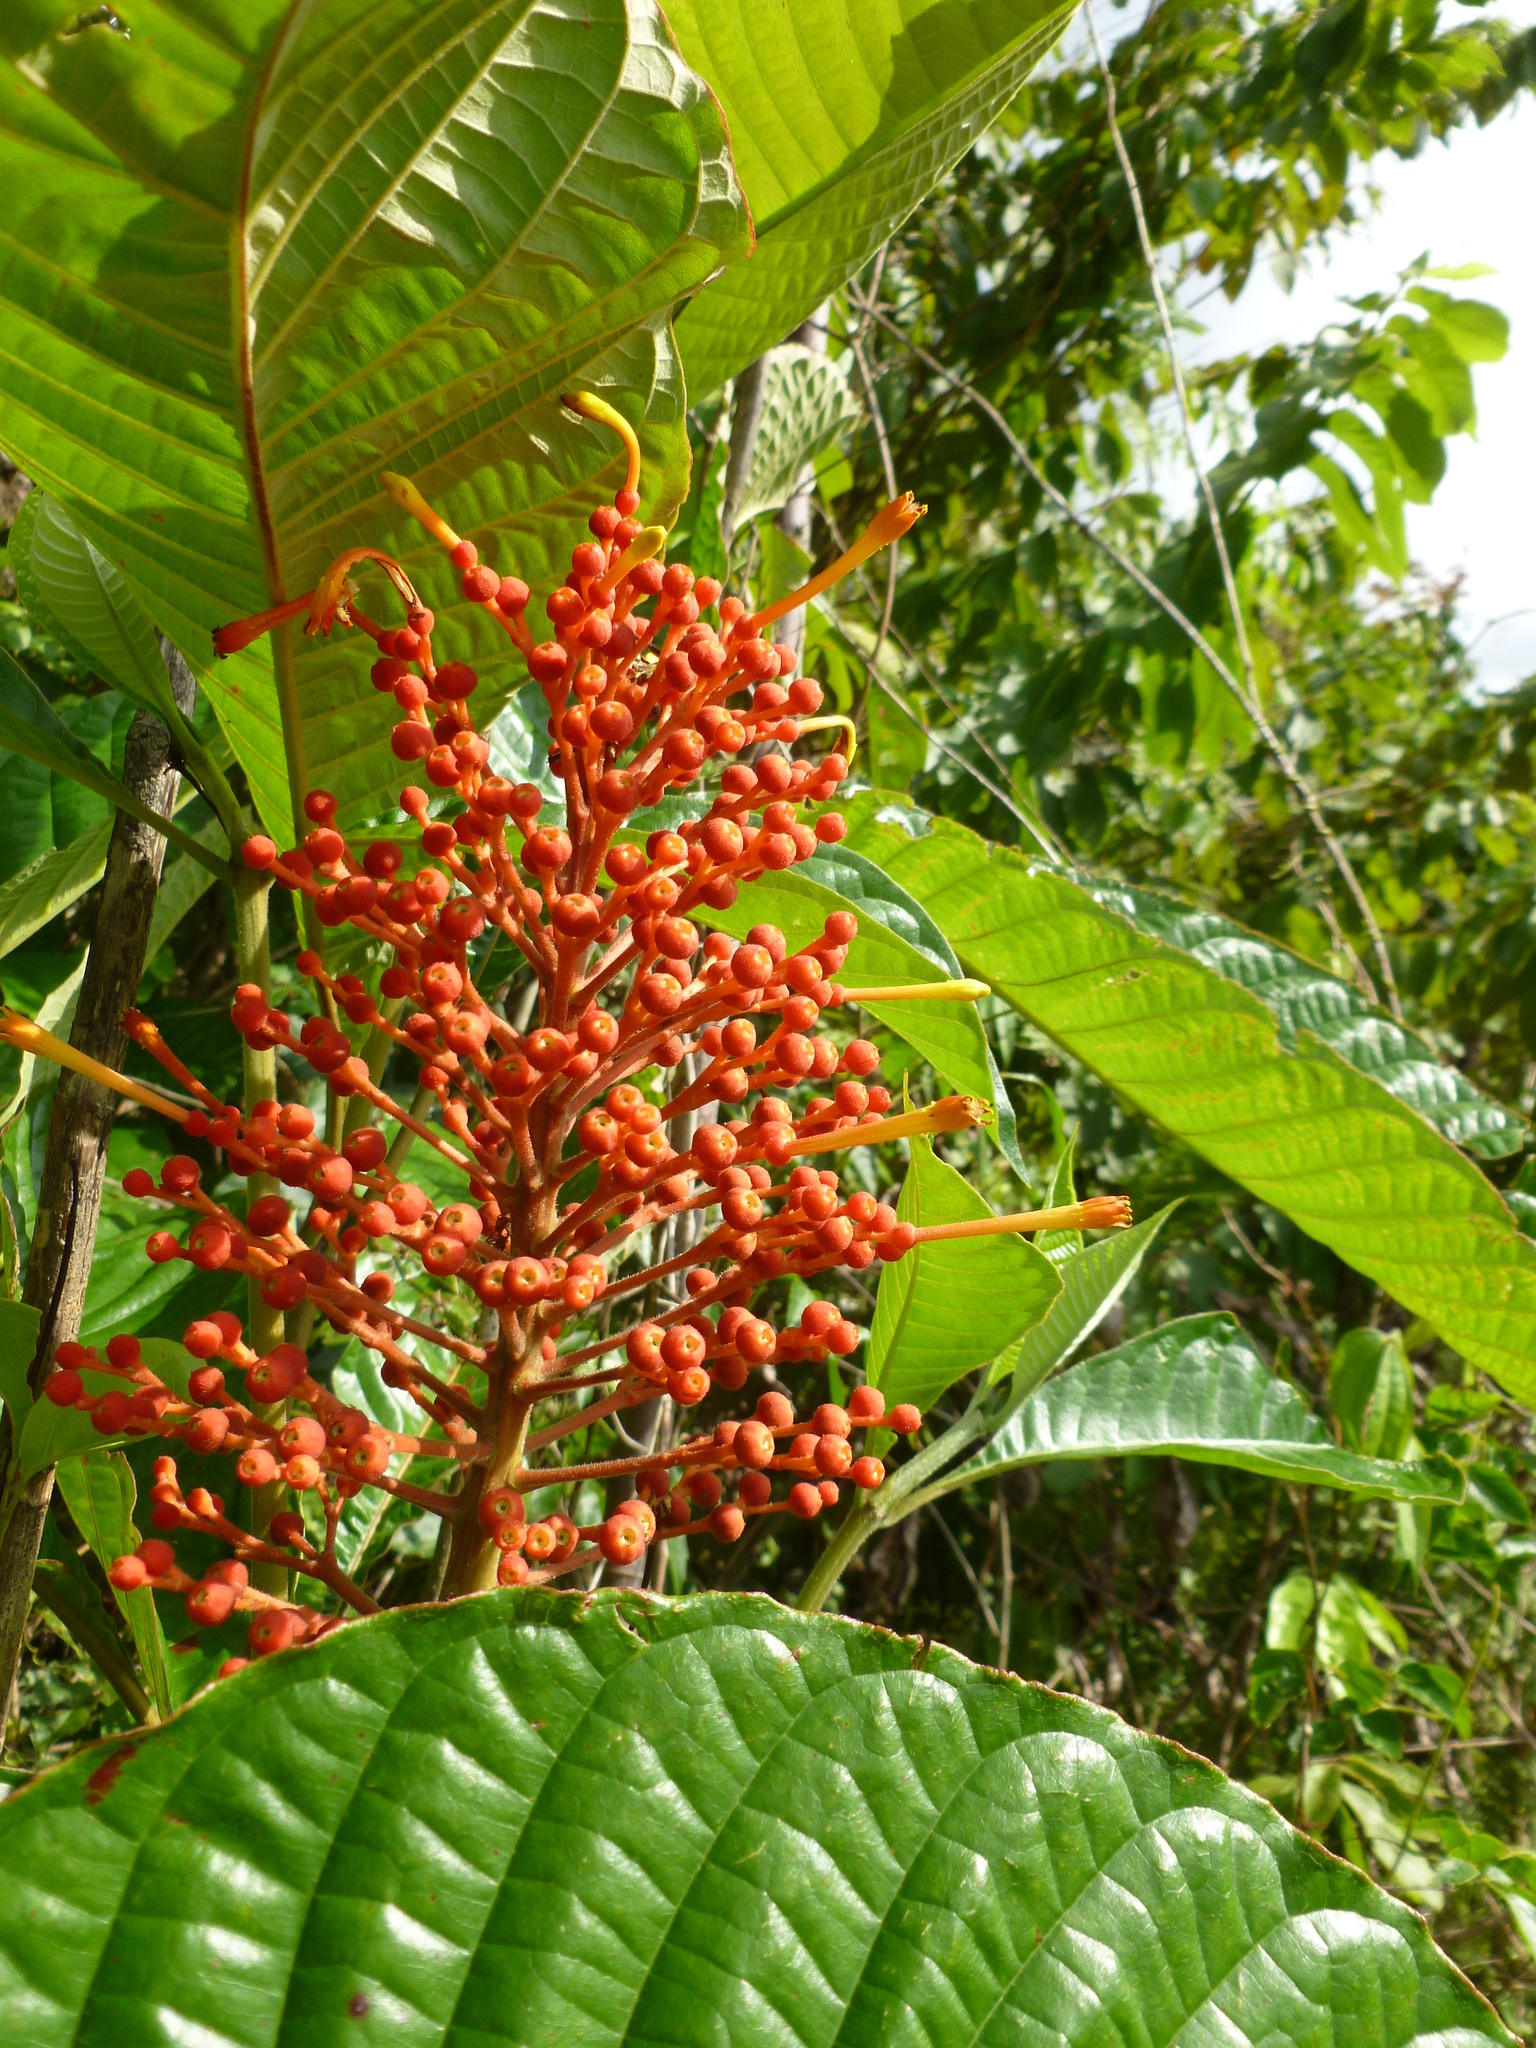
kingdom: Plantae
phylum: Tracheophyta
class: Magnoliopsida
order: Gentianales
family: Rubiaceae
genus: Isertia
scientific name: Isertia haenkeana
